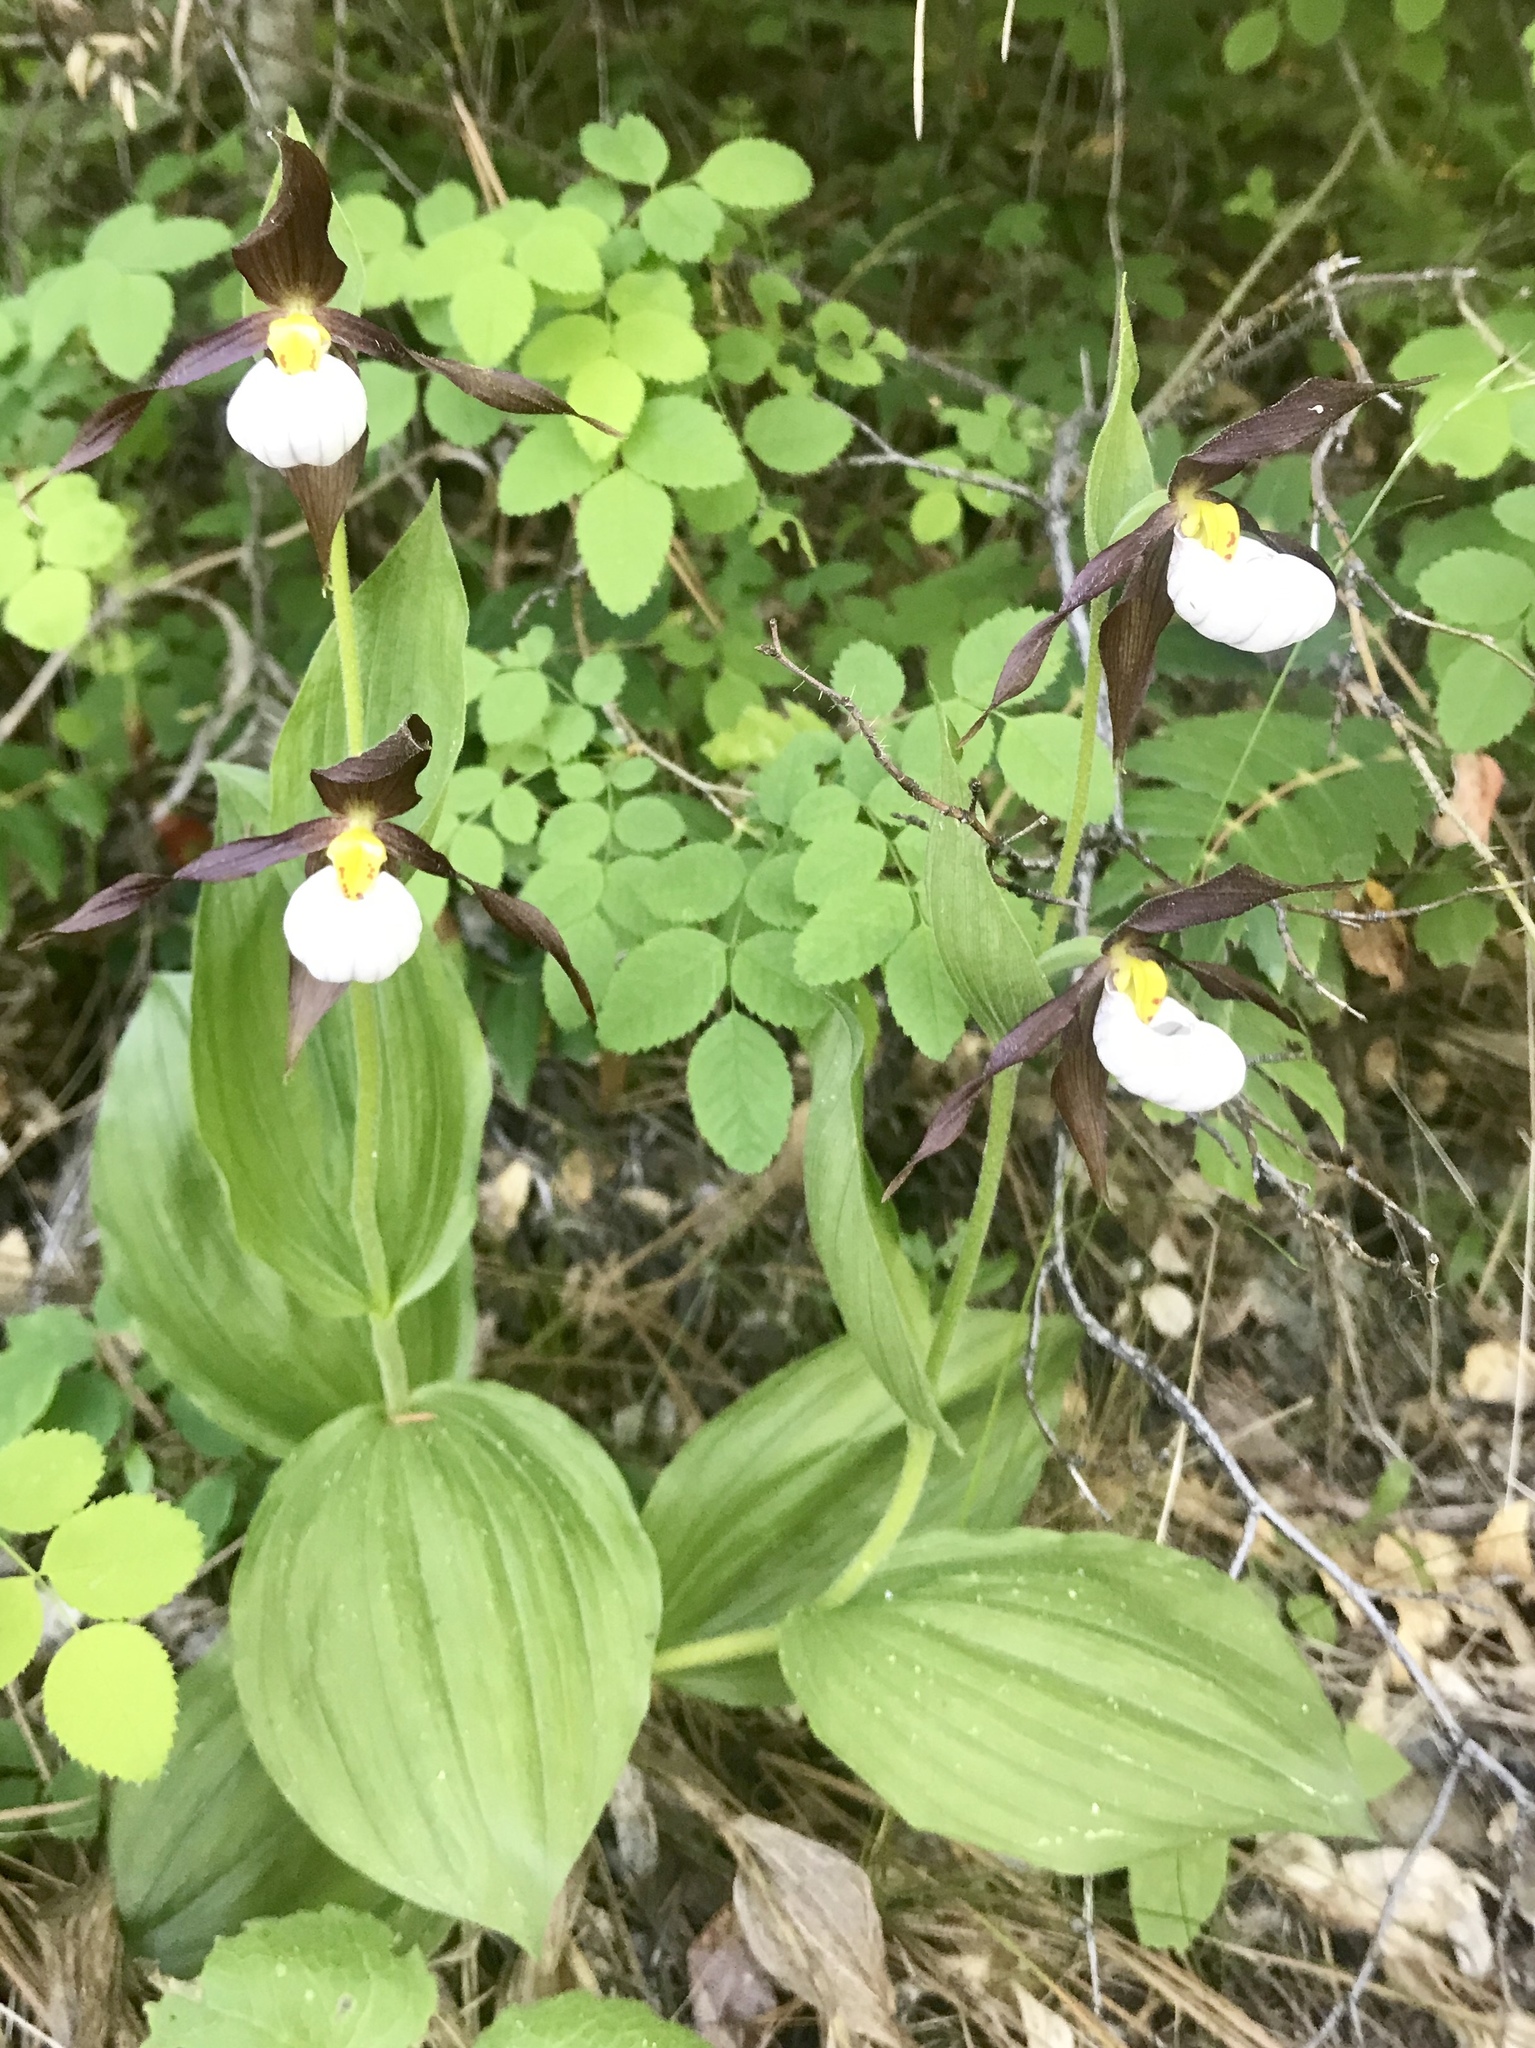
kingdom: Plantae
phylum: Tracheophyta
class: Liliopsida
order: Asparagales
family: Orchidaceae
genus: Cypripedium
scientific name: Cypripedium montanum
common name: Mountain lady's-slipper
